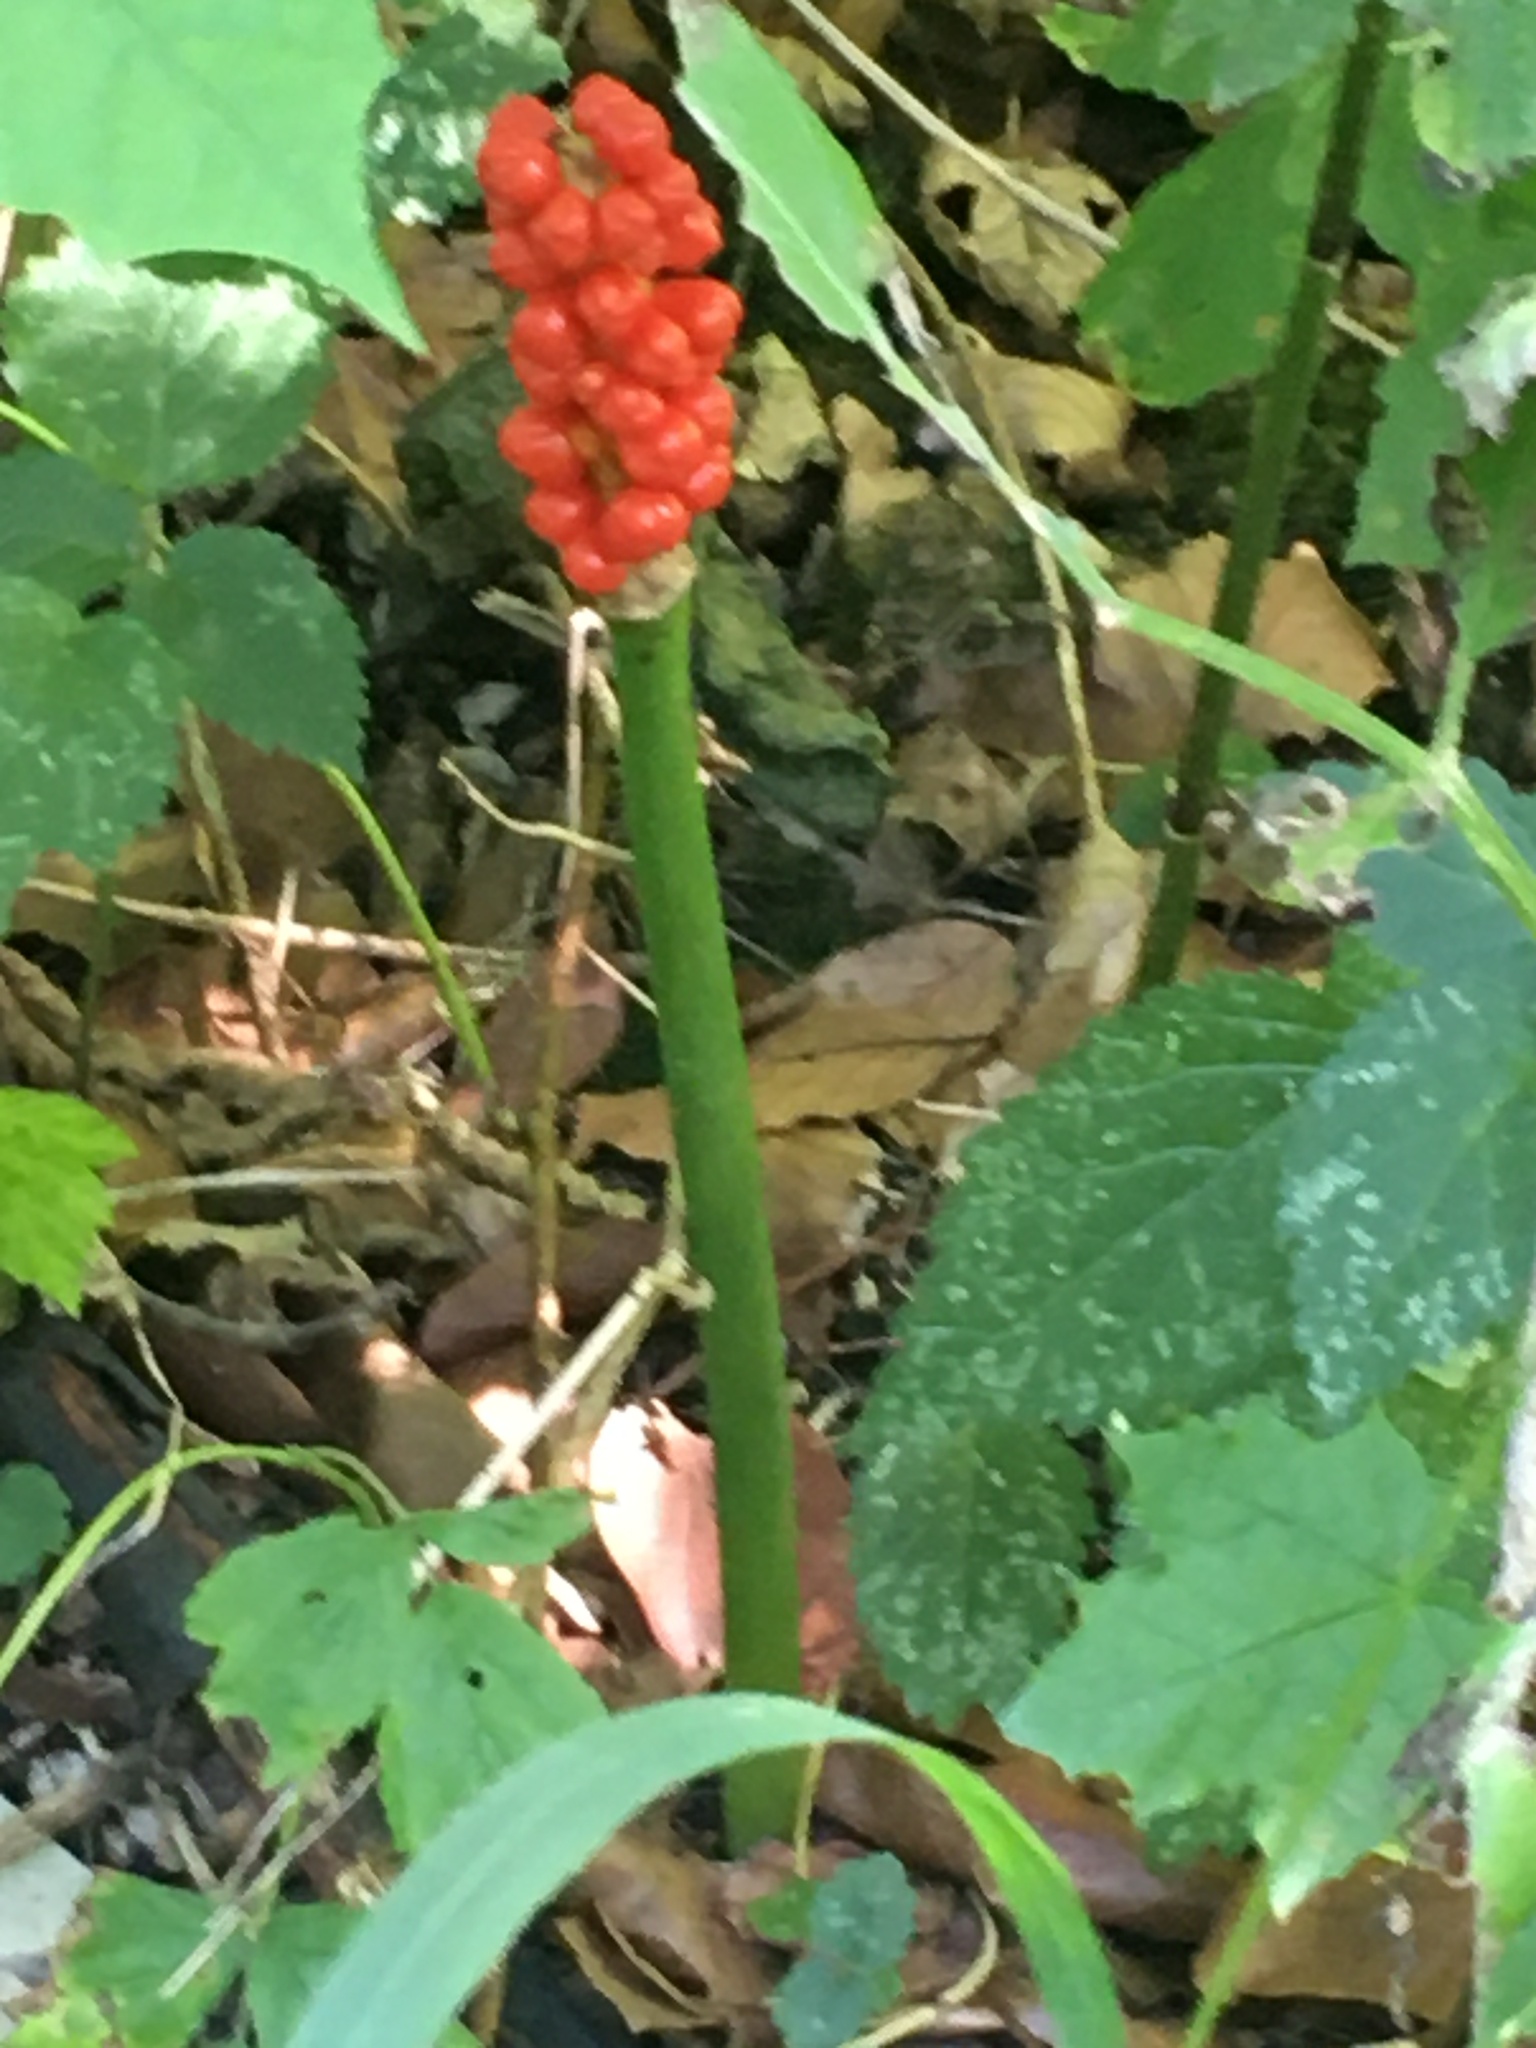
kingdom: Plantae
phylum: Tracheophyta
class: Liliopsida
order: Alismatales
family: Araceae
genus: Arum
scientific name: Arum maculatum
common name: Lords-and-ladies
